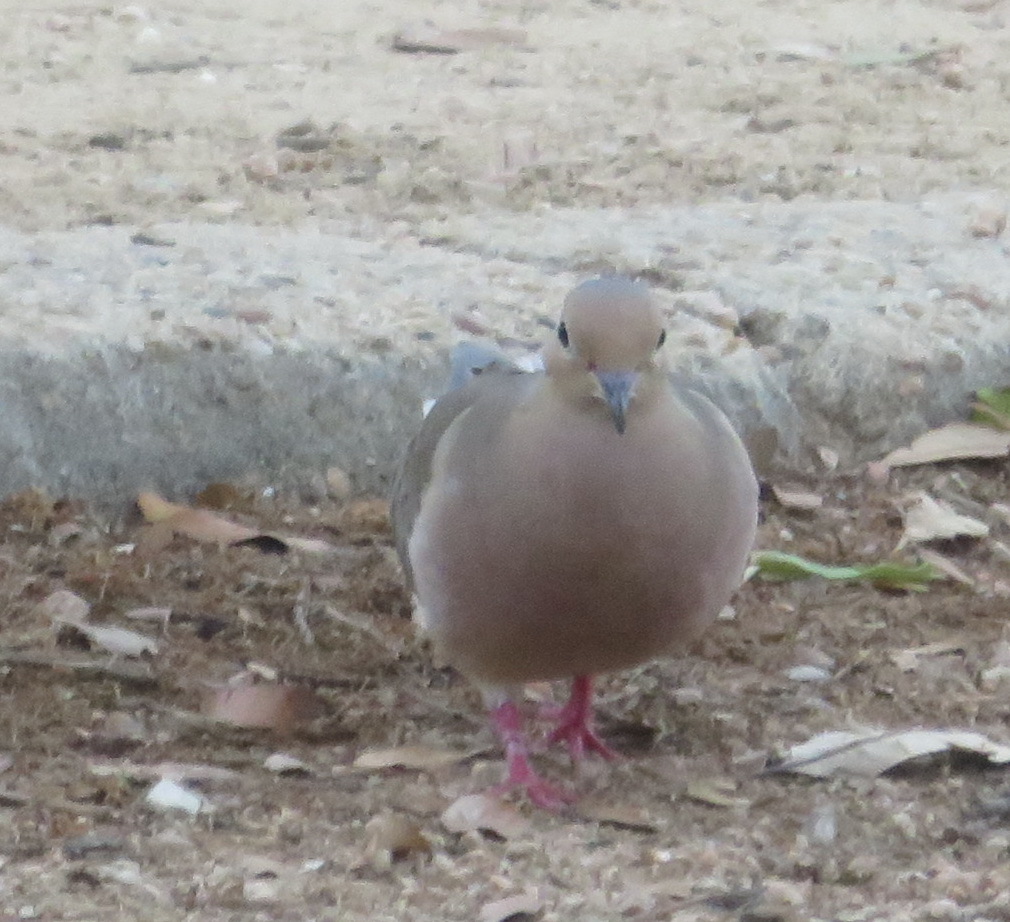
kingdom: Animalia
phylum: Chordata
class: Aves
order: Columbiformes
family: Columbidae
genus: Zenaida
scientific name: Zenaida macroura
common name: Mourning dove
